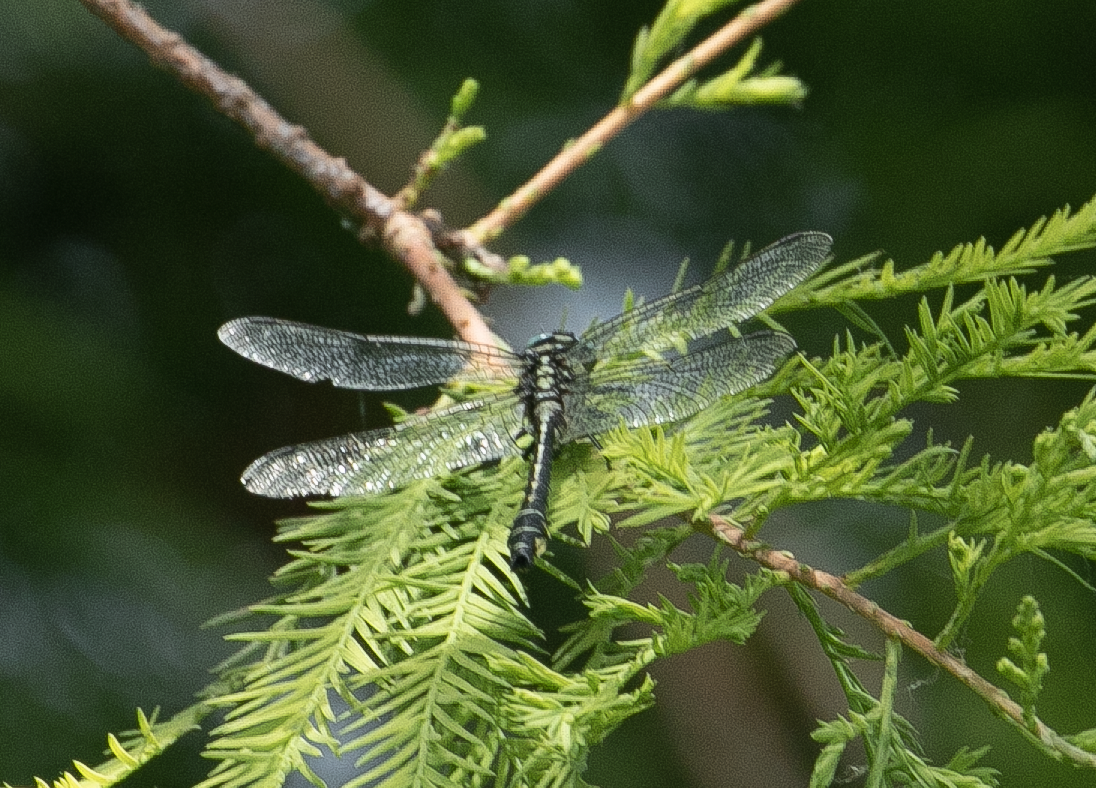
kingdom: Animalia
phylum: Arthropoda
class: Insecta
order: Odonata
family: Gomphidae
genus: Gomphus
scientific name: Gomphus vulgatissimus
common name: Club-tailed dragonfly
